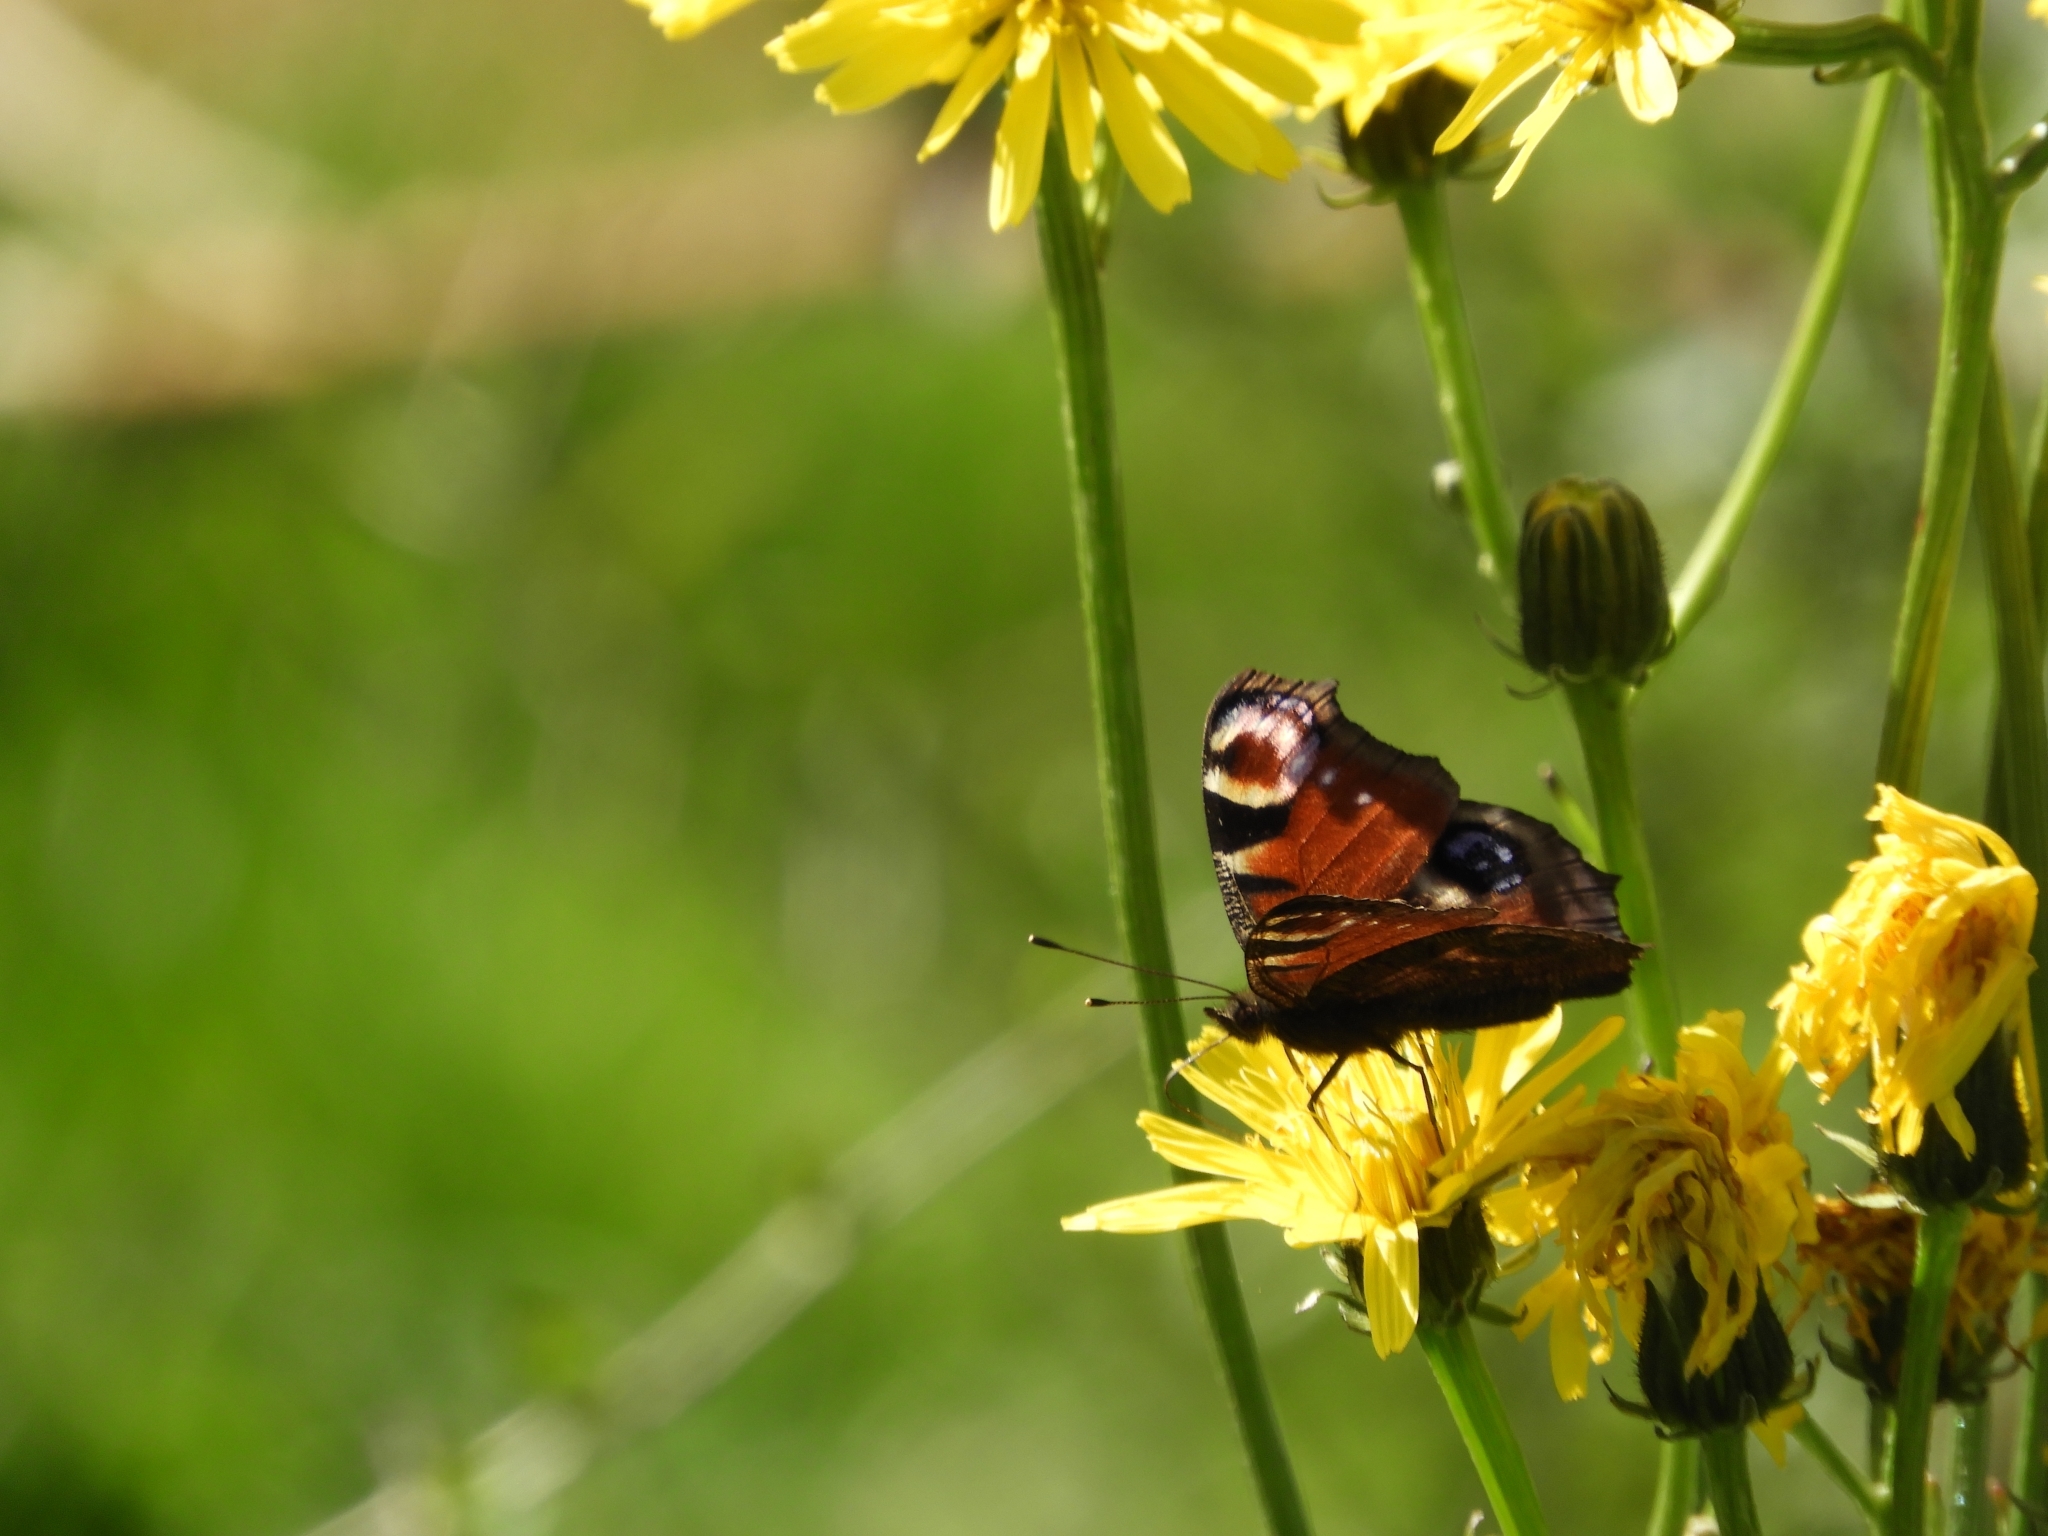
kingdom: Animalia
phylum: Arthropoda
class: Insecta
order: Lepidoptera
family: Nymphalidae
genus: Aglais
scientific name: Aglais io
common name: Peacock
